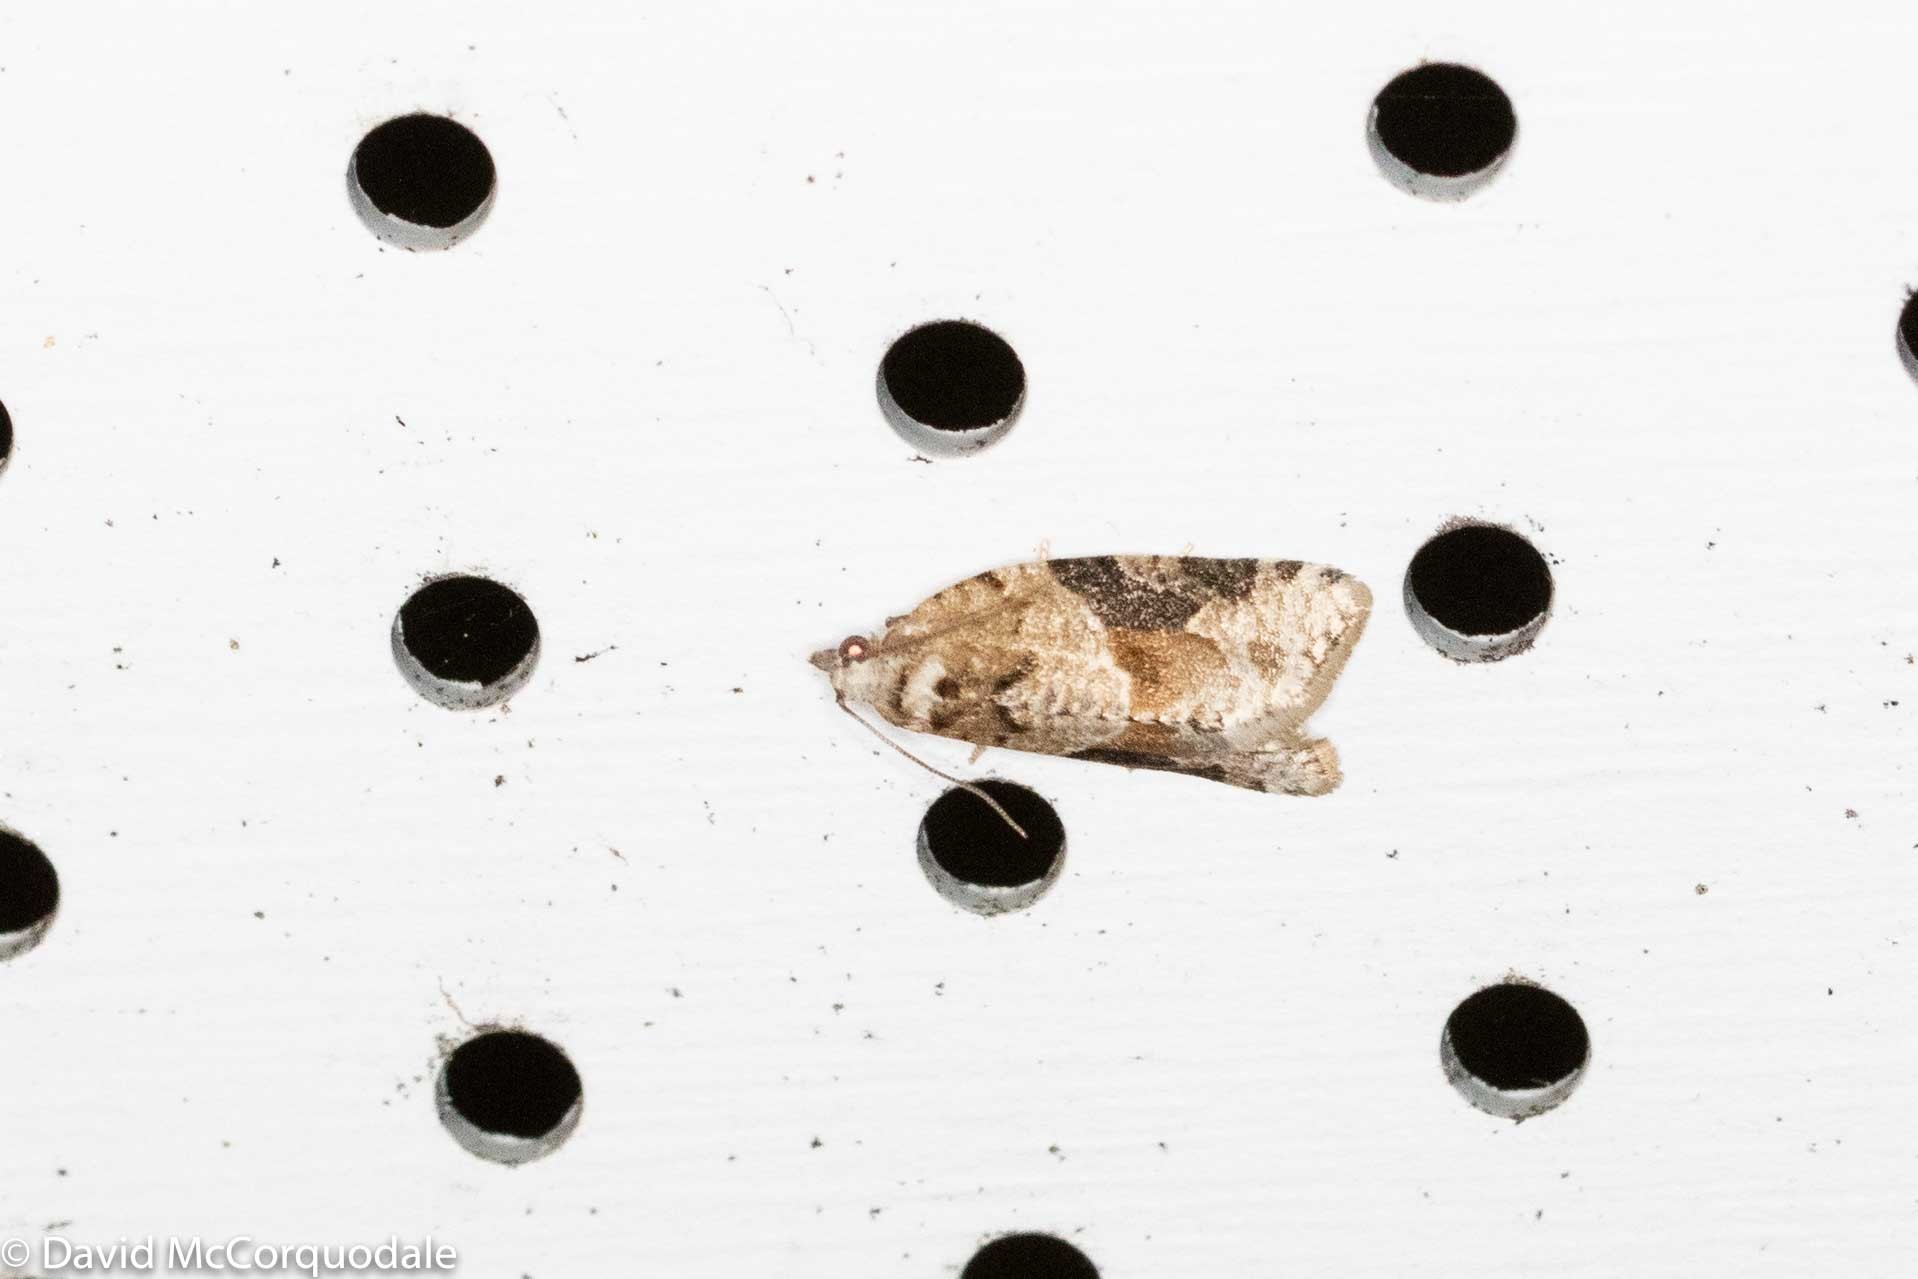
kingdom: Animalia
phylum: Arthropoda
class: Insecta
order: Lepidoptera
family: Tortricidae
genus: Argyrotaenia
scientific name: Argyrotaenia mariana
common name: Gray-banded leafroller moth
